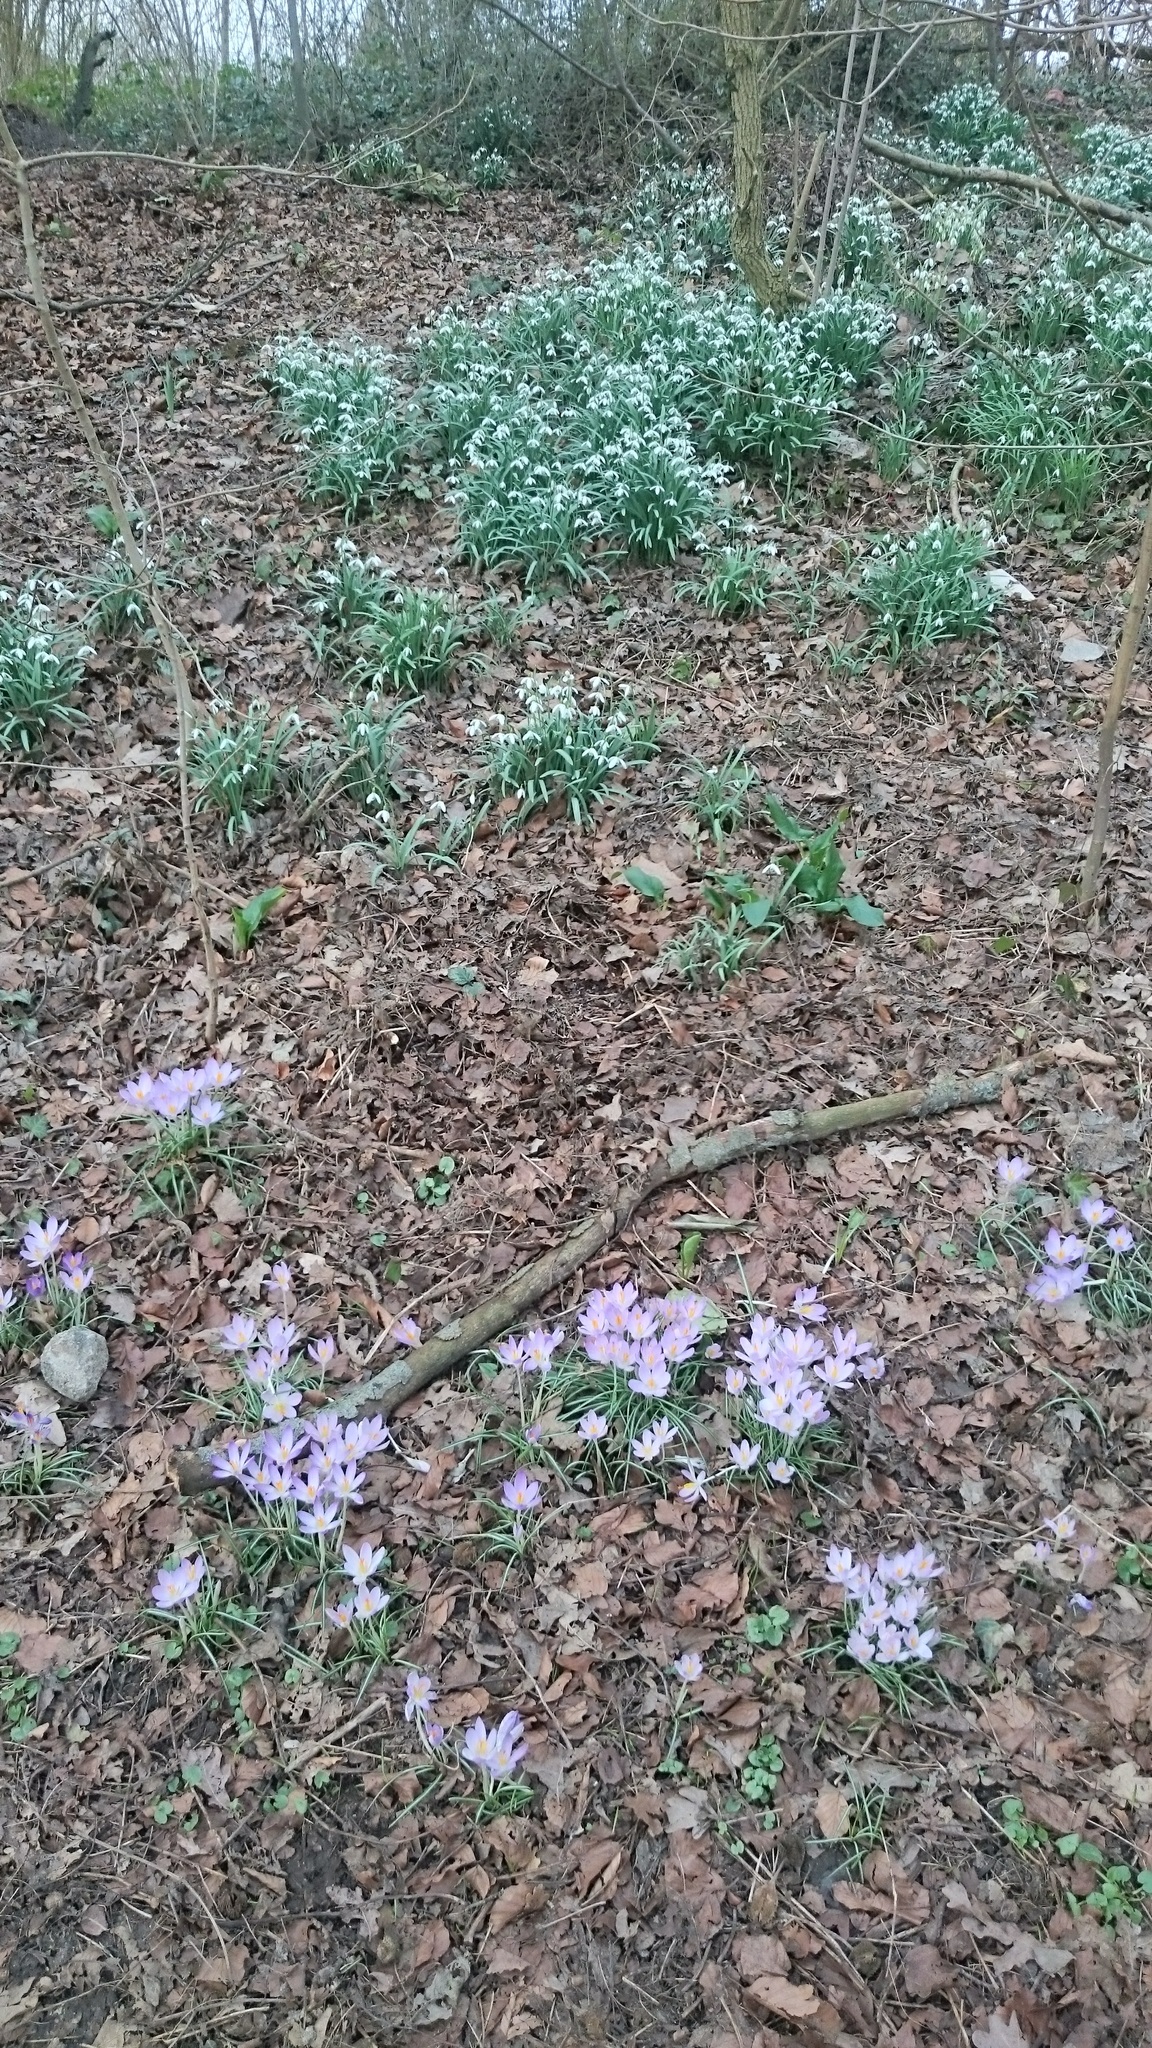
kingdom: Plantae
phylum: Tracheophyta
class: Liliopsida
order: Asparagales
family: Iridaceae
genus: Crocus
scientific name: Crocus tommasinianus
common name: Early crocus
